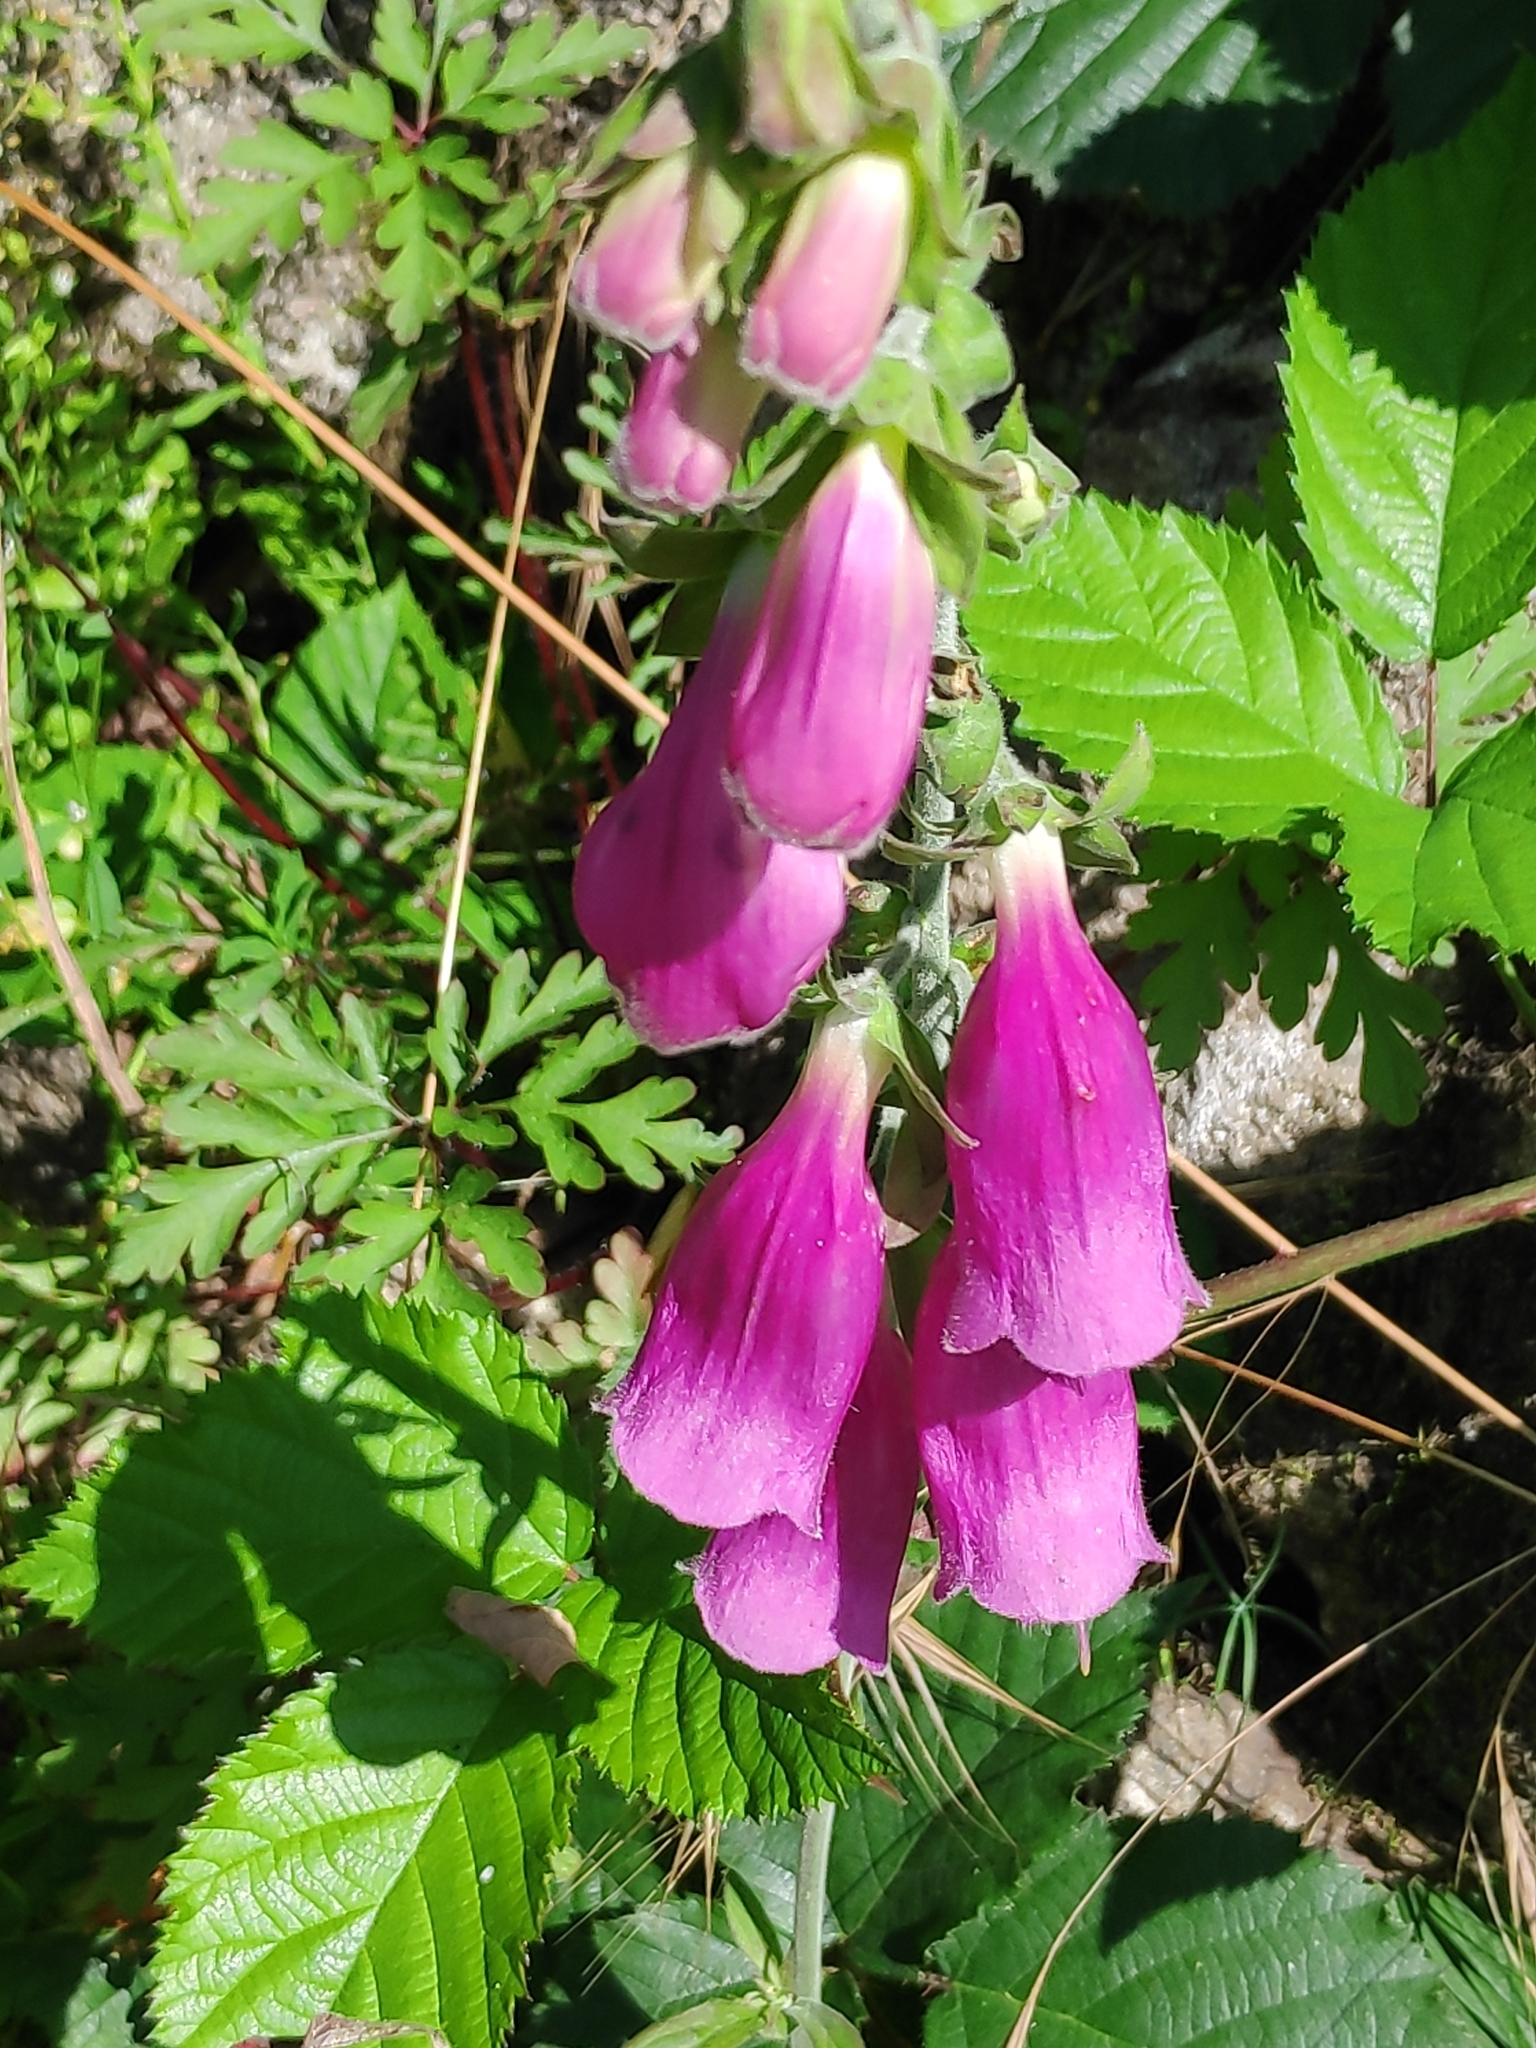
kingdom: Plantae
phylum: Tracheophyta
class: Magnoliopsida
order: Lamiales
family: Plantaginaceae
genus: Digitalis
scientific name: Digitalis purpurea
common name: Foxglove
